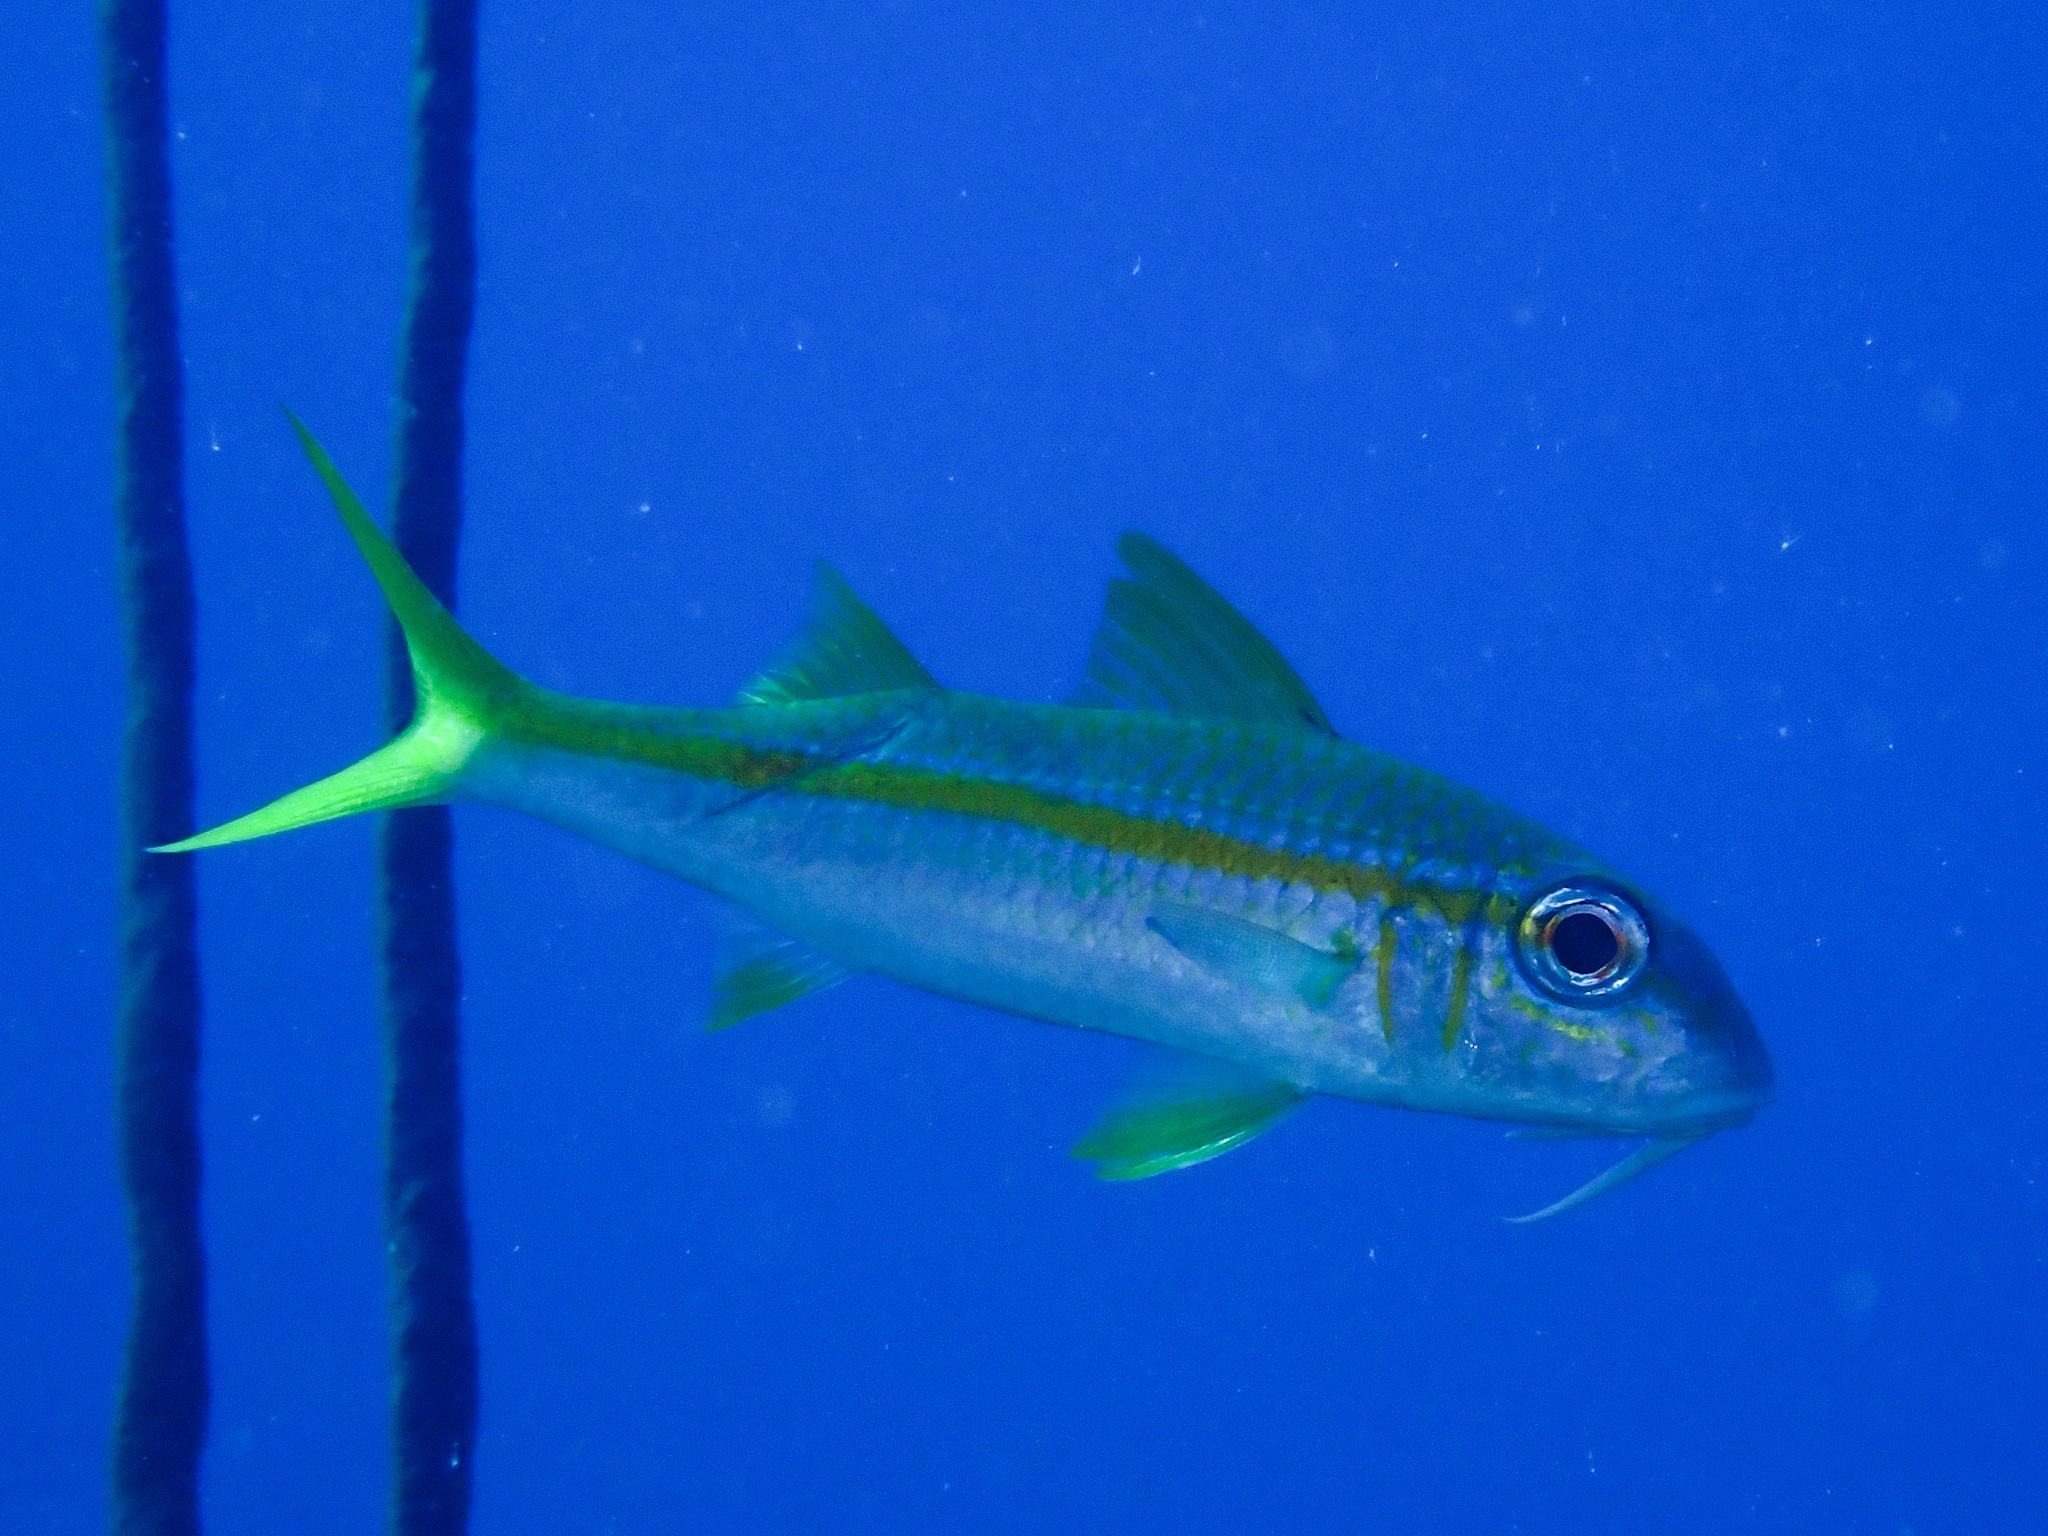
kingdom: Animalia
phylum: Chordata
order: Perciformes
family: Mullidae
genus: Mulloidichthys
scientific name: Mulloidichthys martinicus
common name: Yellow goatfish
